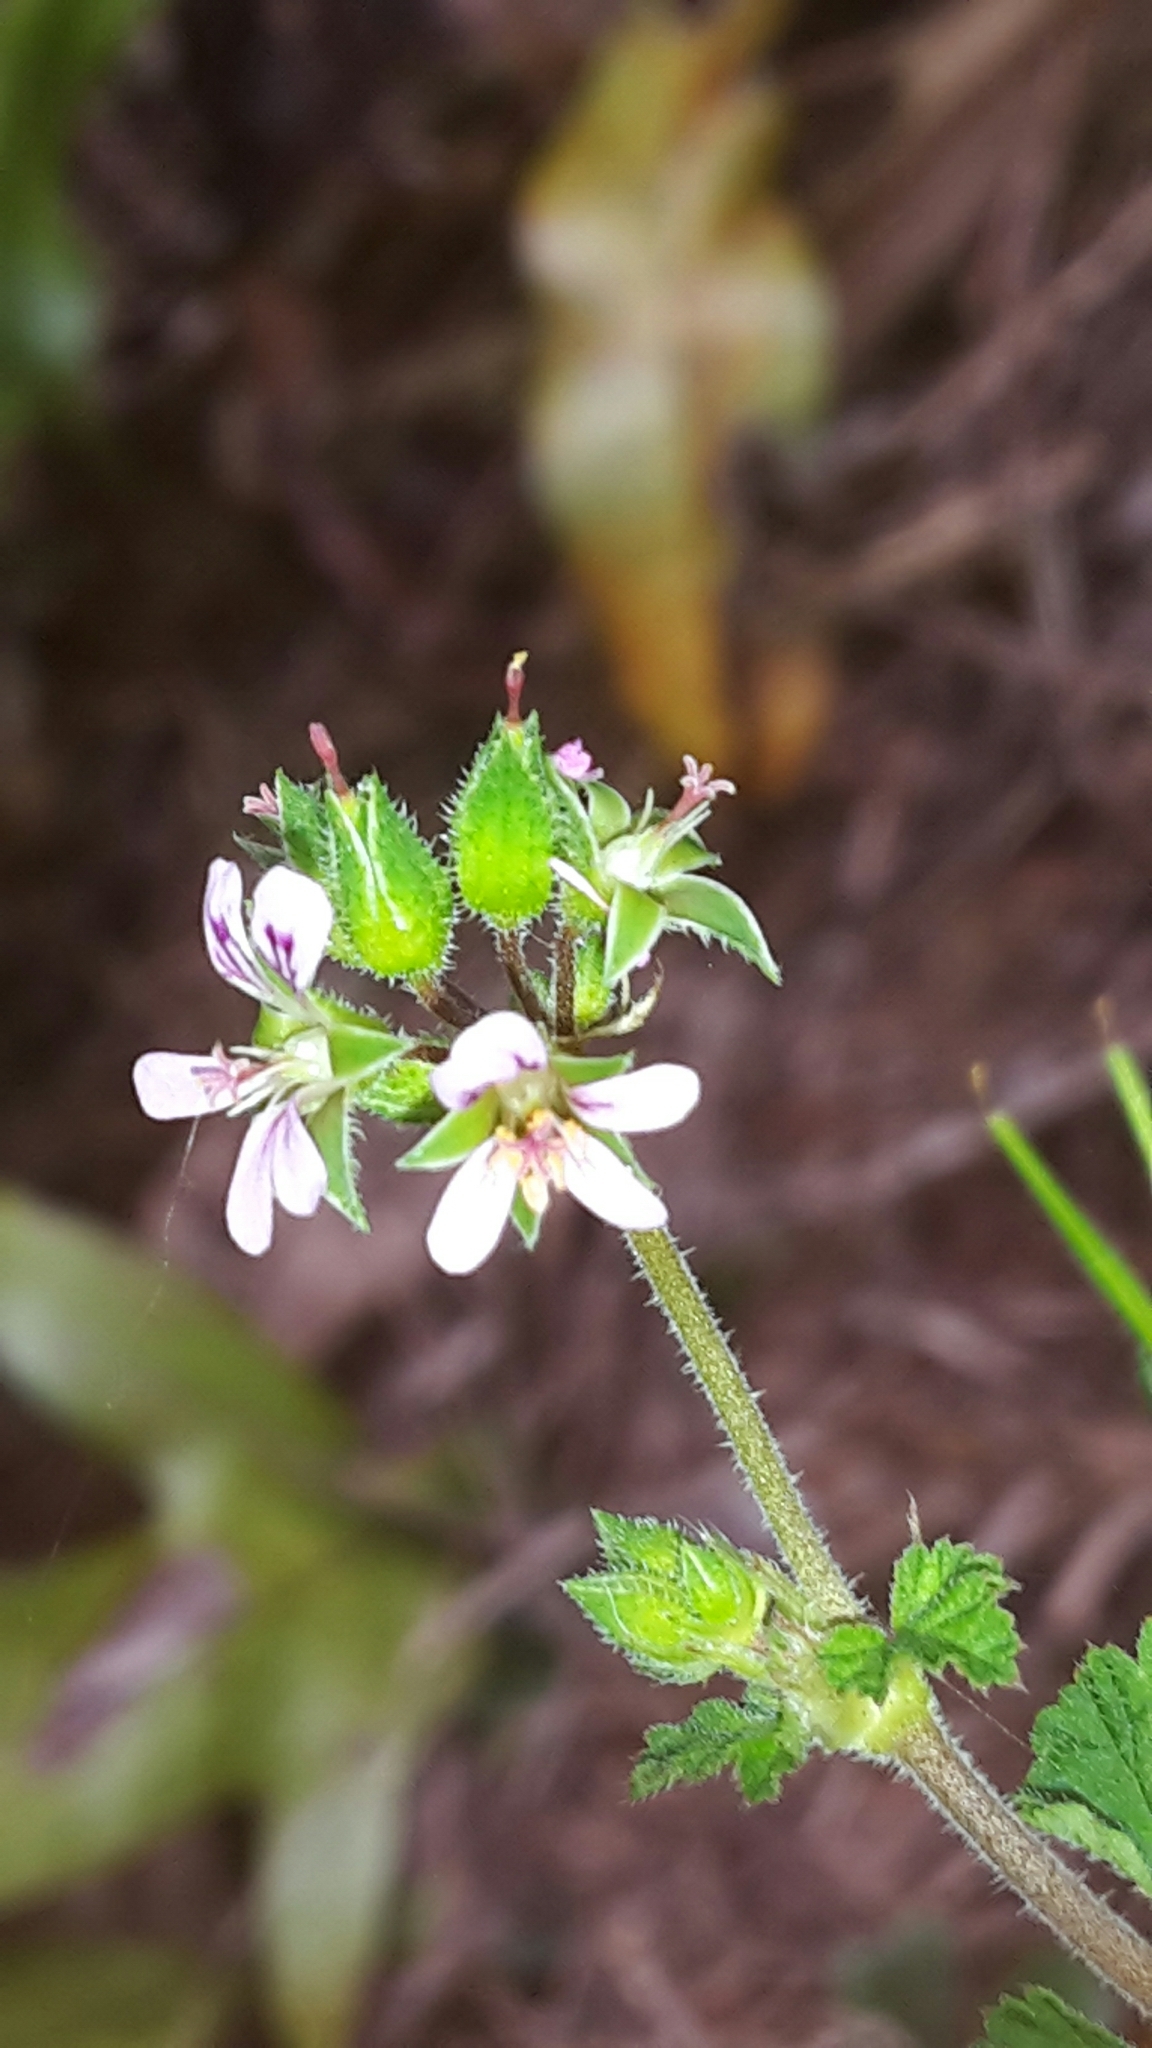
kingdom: Plantae
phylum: Tracheophyta
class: Magnoliopsida
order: Geraniales
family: Geraniaceae
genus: Pelargonium
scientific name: Pelargonium inodorum
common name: Kopata geranium
